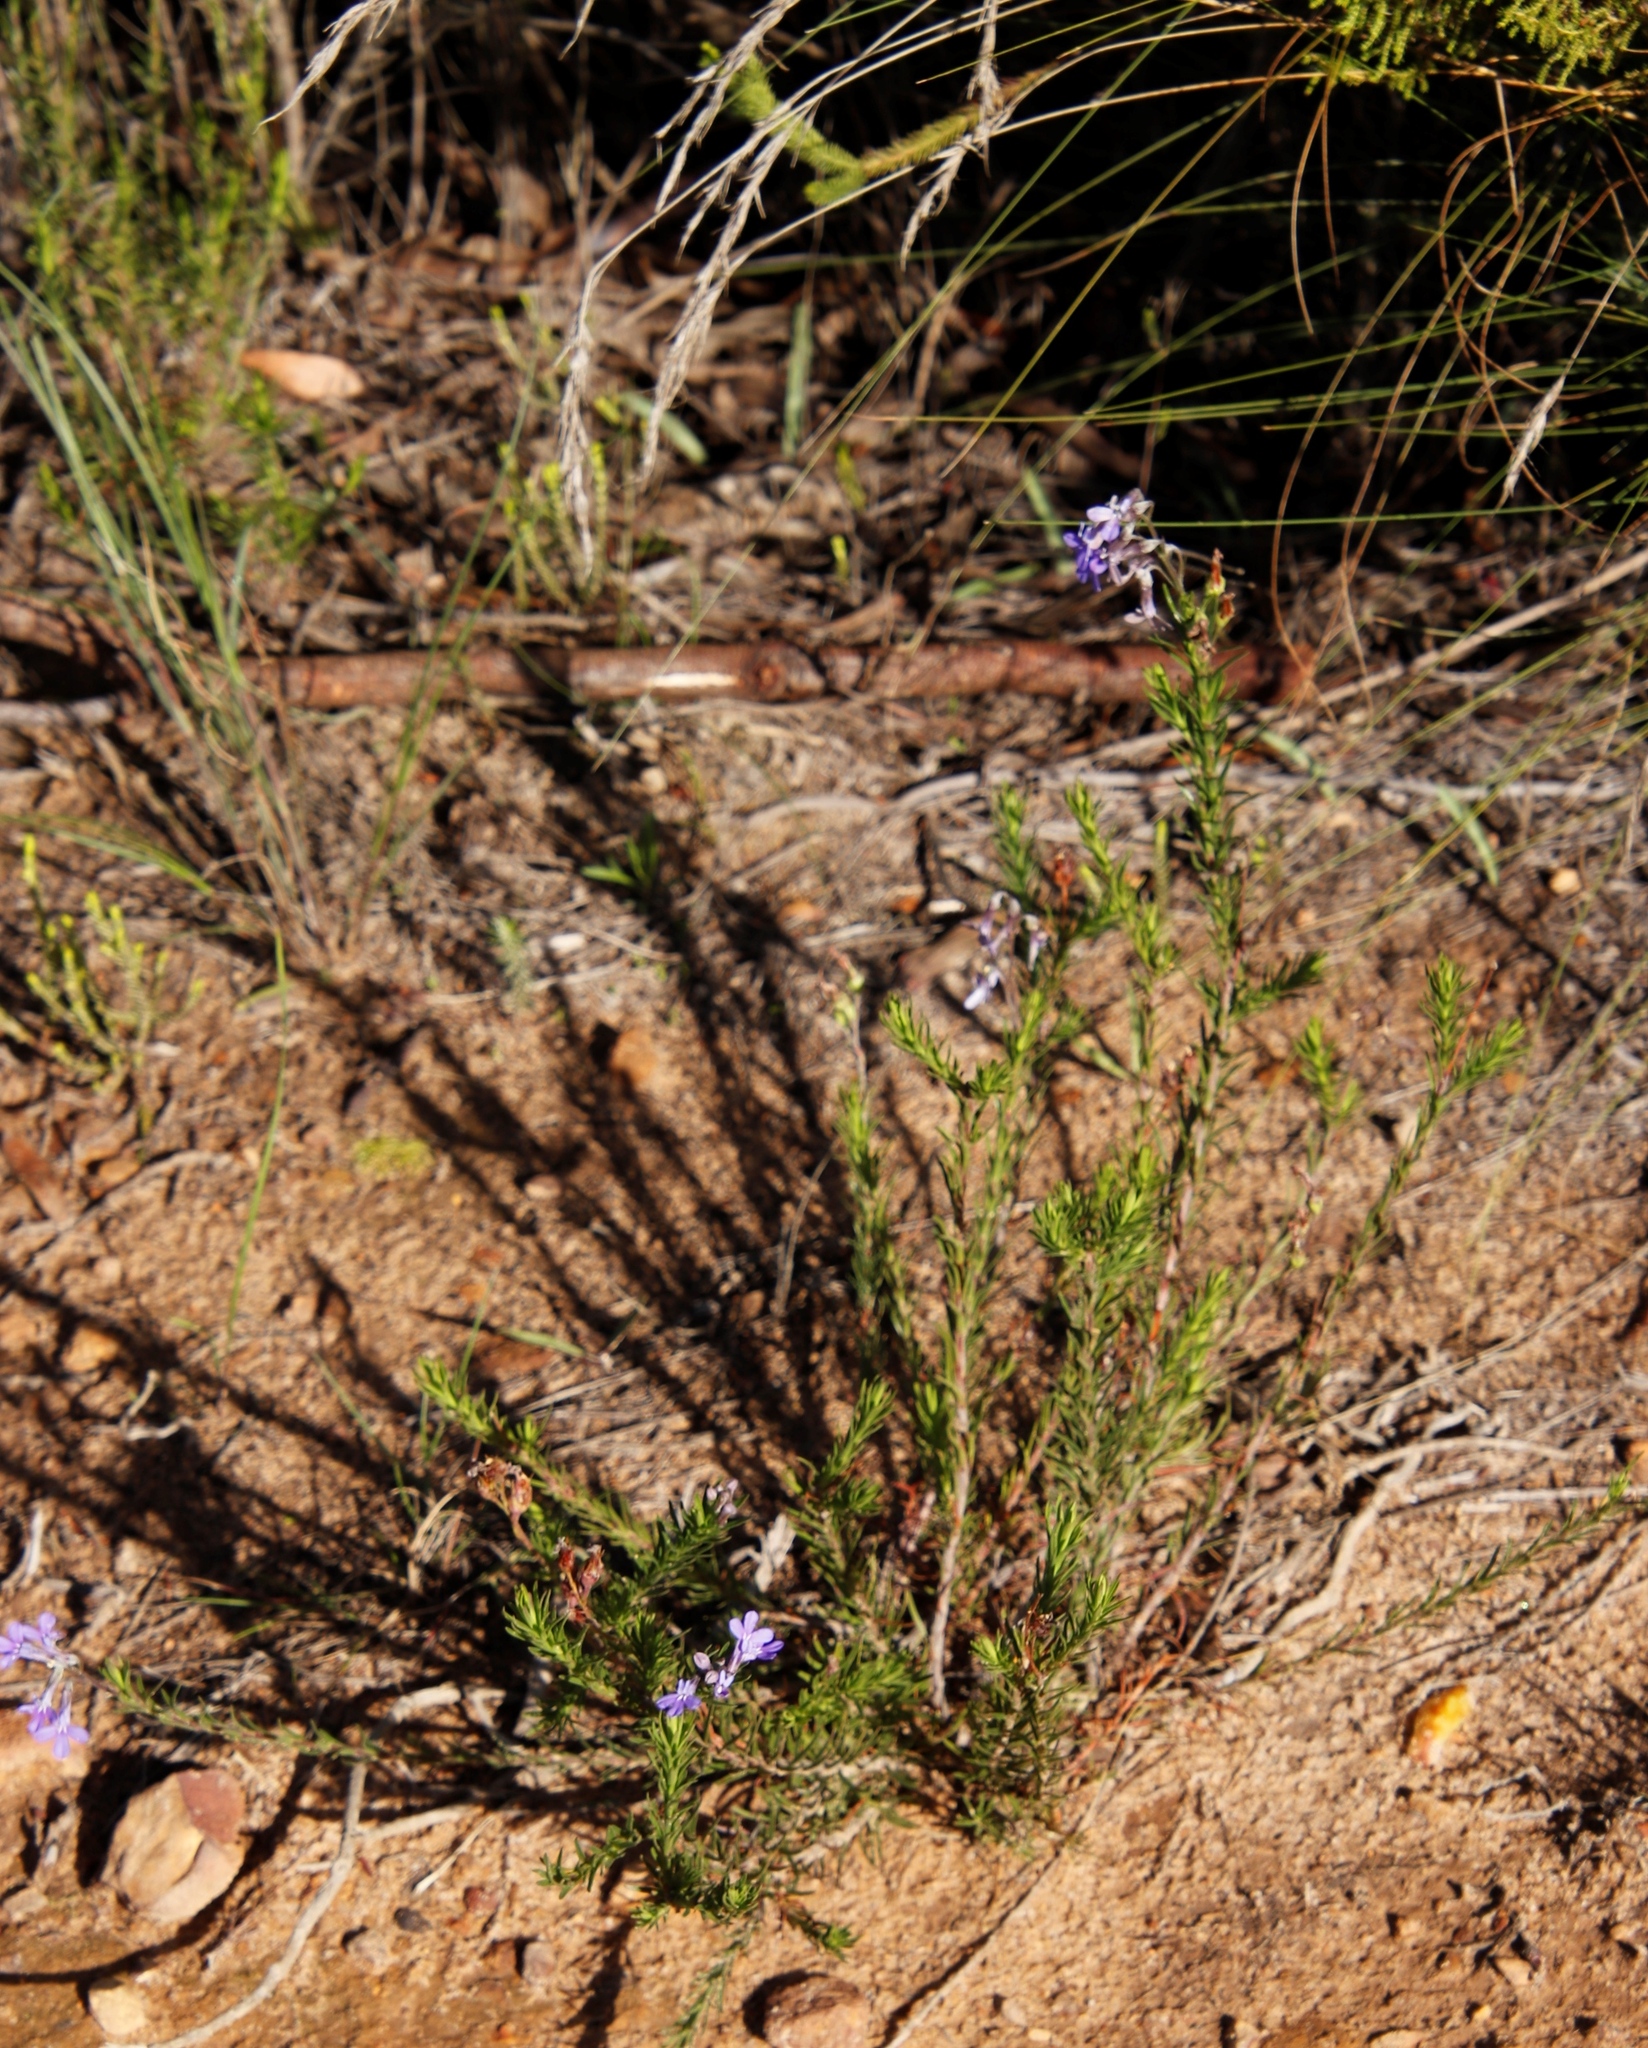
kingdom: Plantae
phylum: Tracheophyta
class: Magnoliopsida
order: Asterales
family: Campanulaceae
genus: Lobelia
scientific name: Lobelia pinifolia
